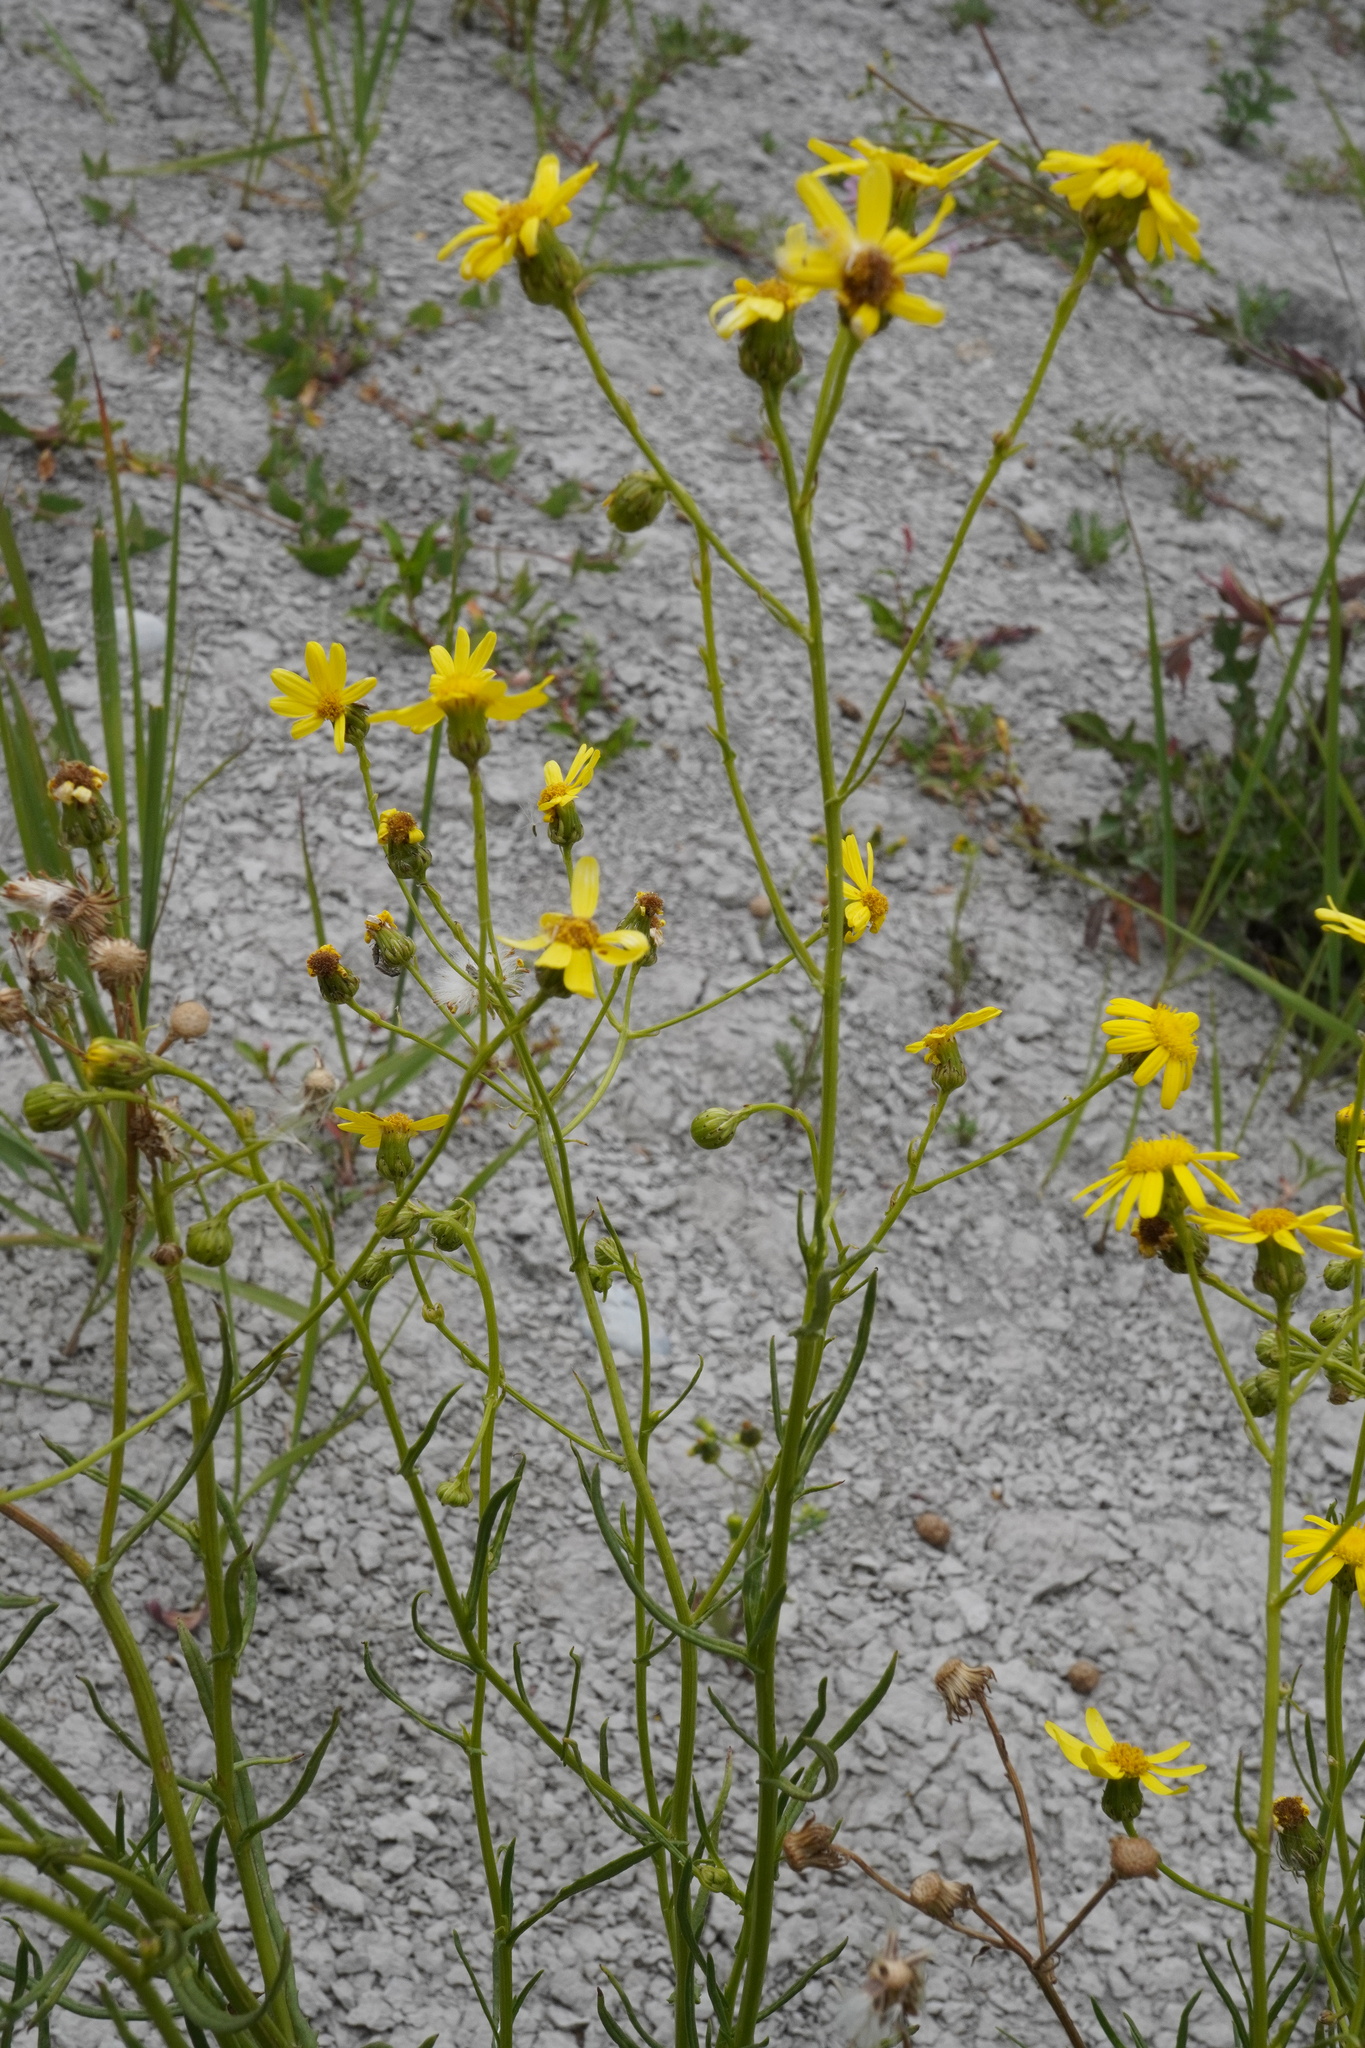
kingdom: Plantae
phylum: Tracheophyta
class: Magnoliopsida
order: Asterales
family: Asteraceae
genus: Senecio
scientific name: Senecio inaequidens
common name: Narrow-leaved ragwort
